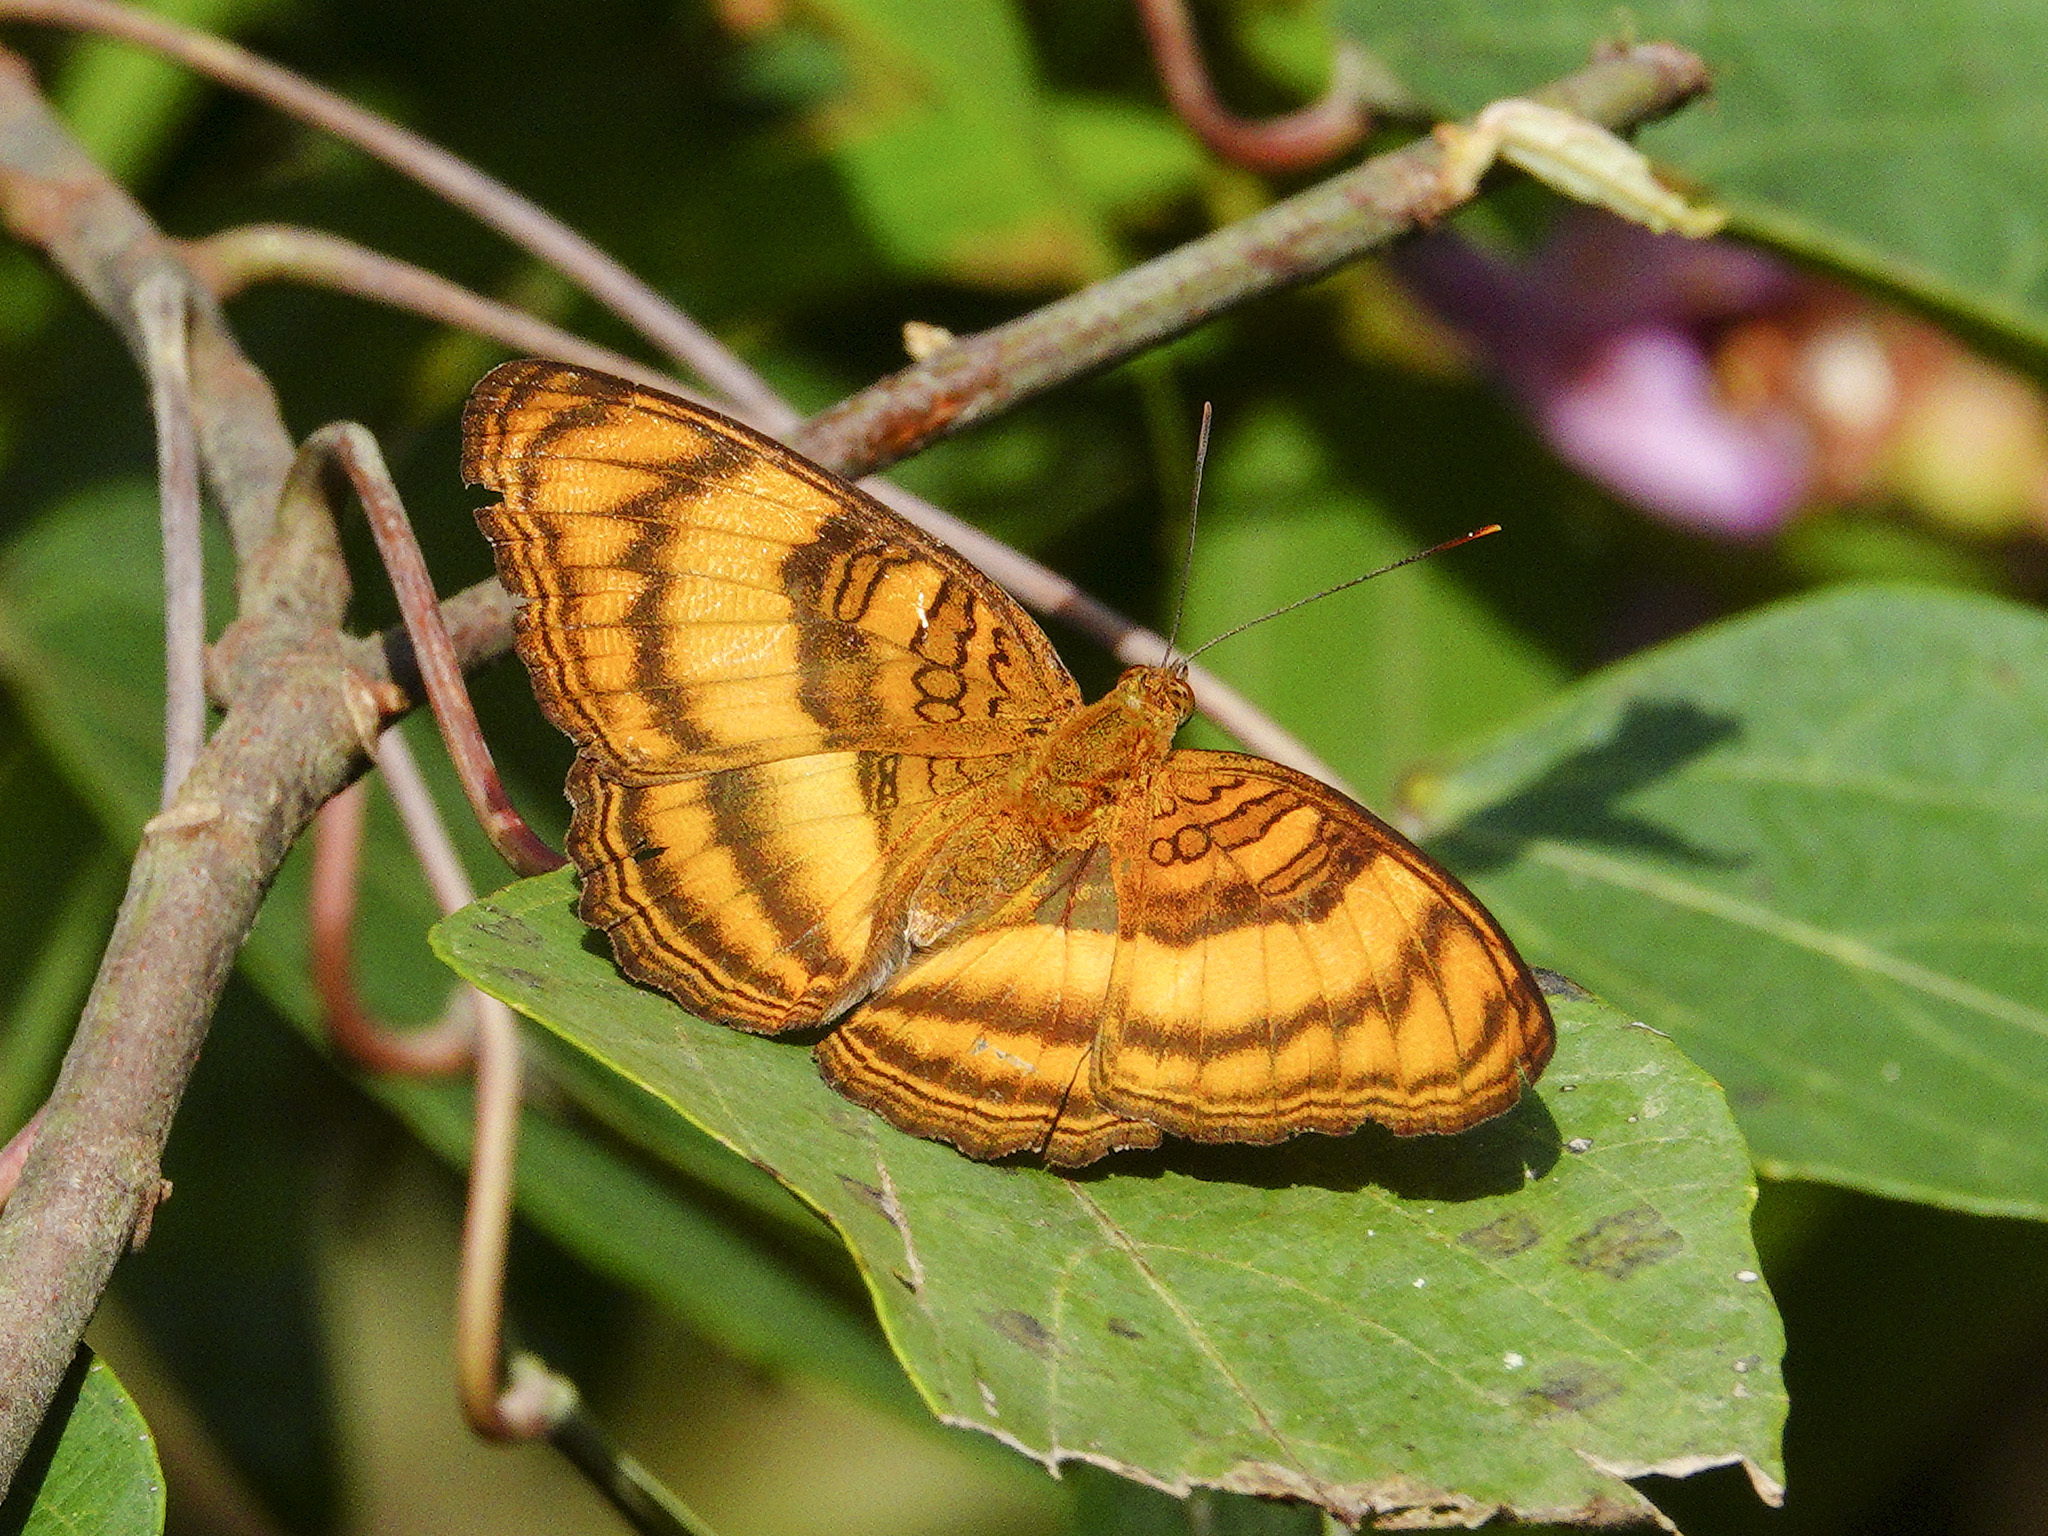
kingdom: Animalia
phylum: Arthropoda
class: Insecta
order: Lepidoptera
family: Nymphalidae
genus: Pandita
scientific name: Pandita sinope
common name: Colonel
